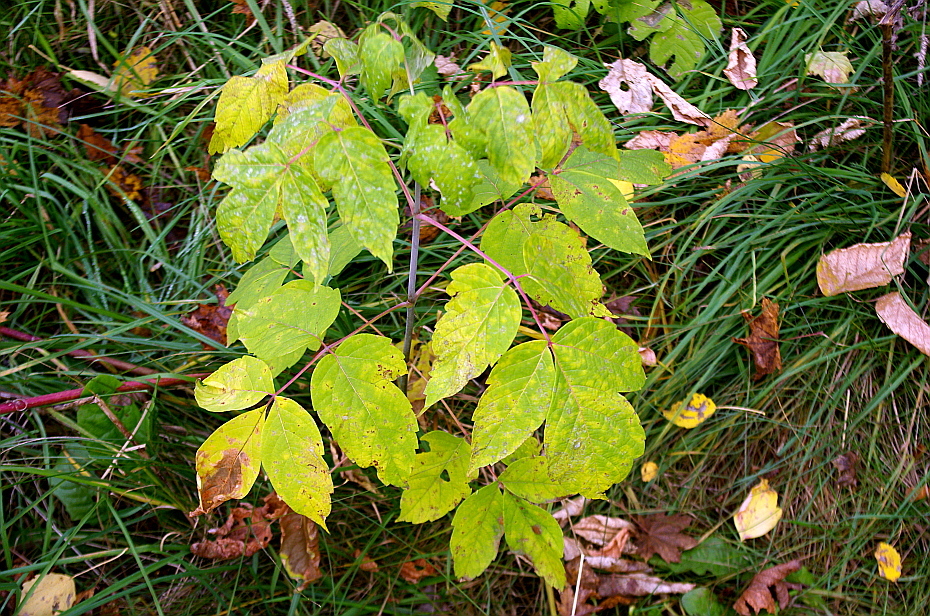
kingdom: Plantae
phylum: Tracheophyta
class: Magnoliopsida
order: Sapindales
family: Sapindaceae
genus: Acer
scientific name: Acer negundo
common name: Ashleaf maple
